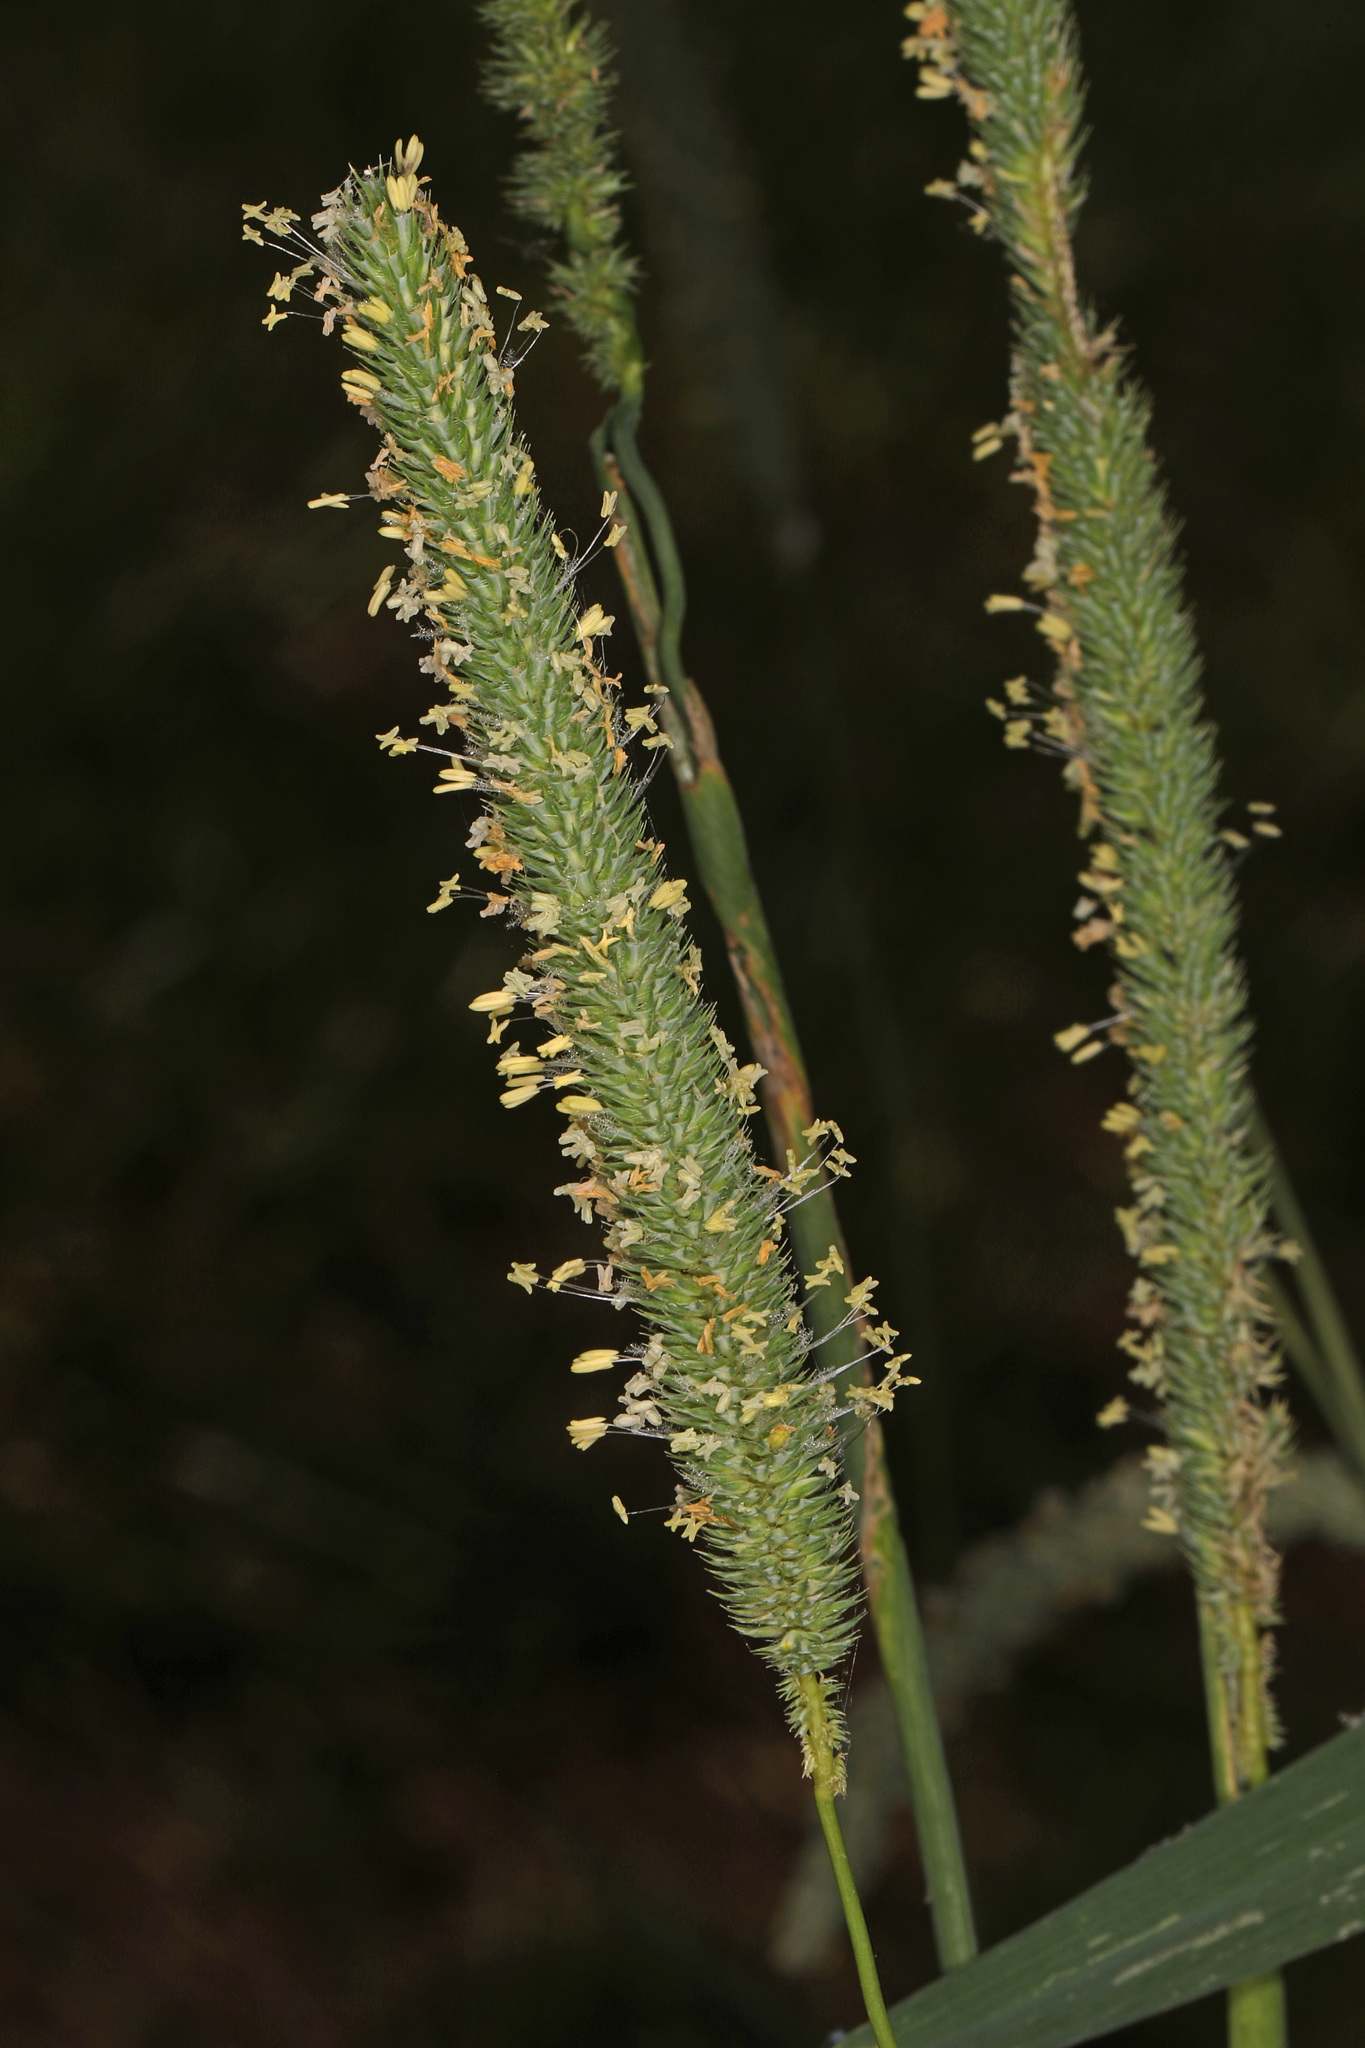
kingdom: Plantae
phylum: Tracheophyta
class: Liliopsida
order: Poales
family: Poaceae
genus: Phleum
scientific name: Phleum pratense
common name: Timothy grass
